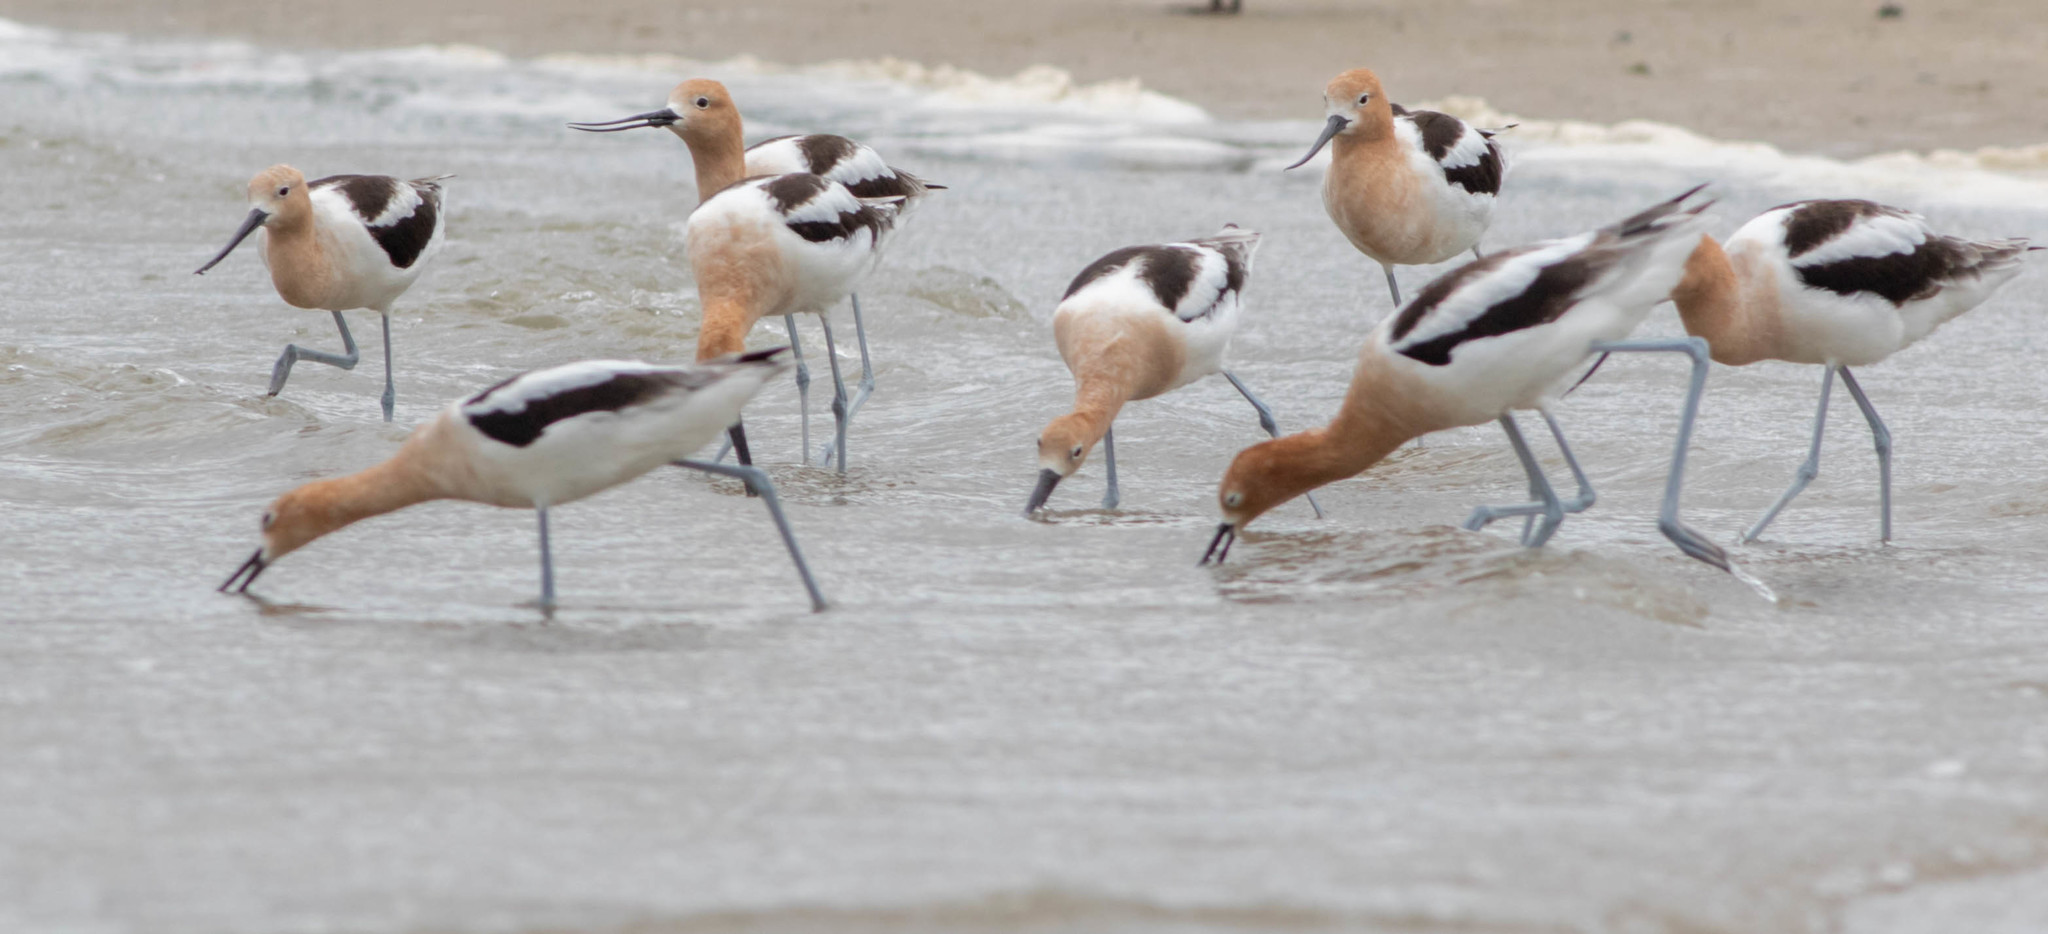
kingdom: Animalia
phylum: Chordata
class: Aves
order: Charadriiformes
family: Recurvirostridae
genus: Recurvirostra
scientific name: Recurvirostra americana
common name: American avocet
